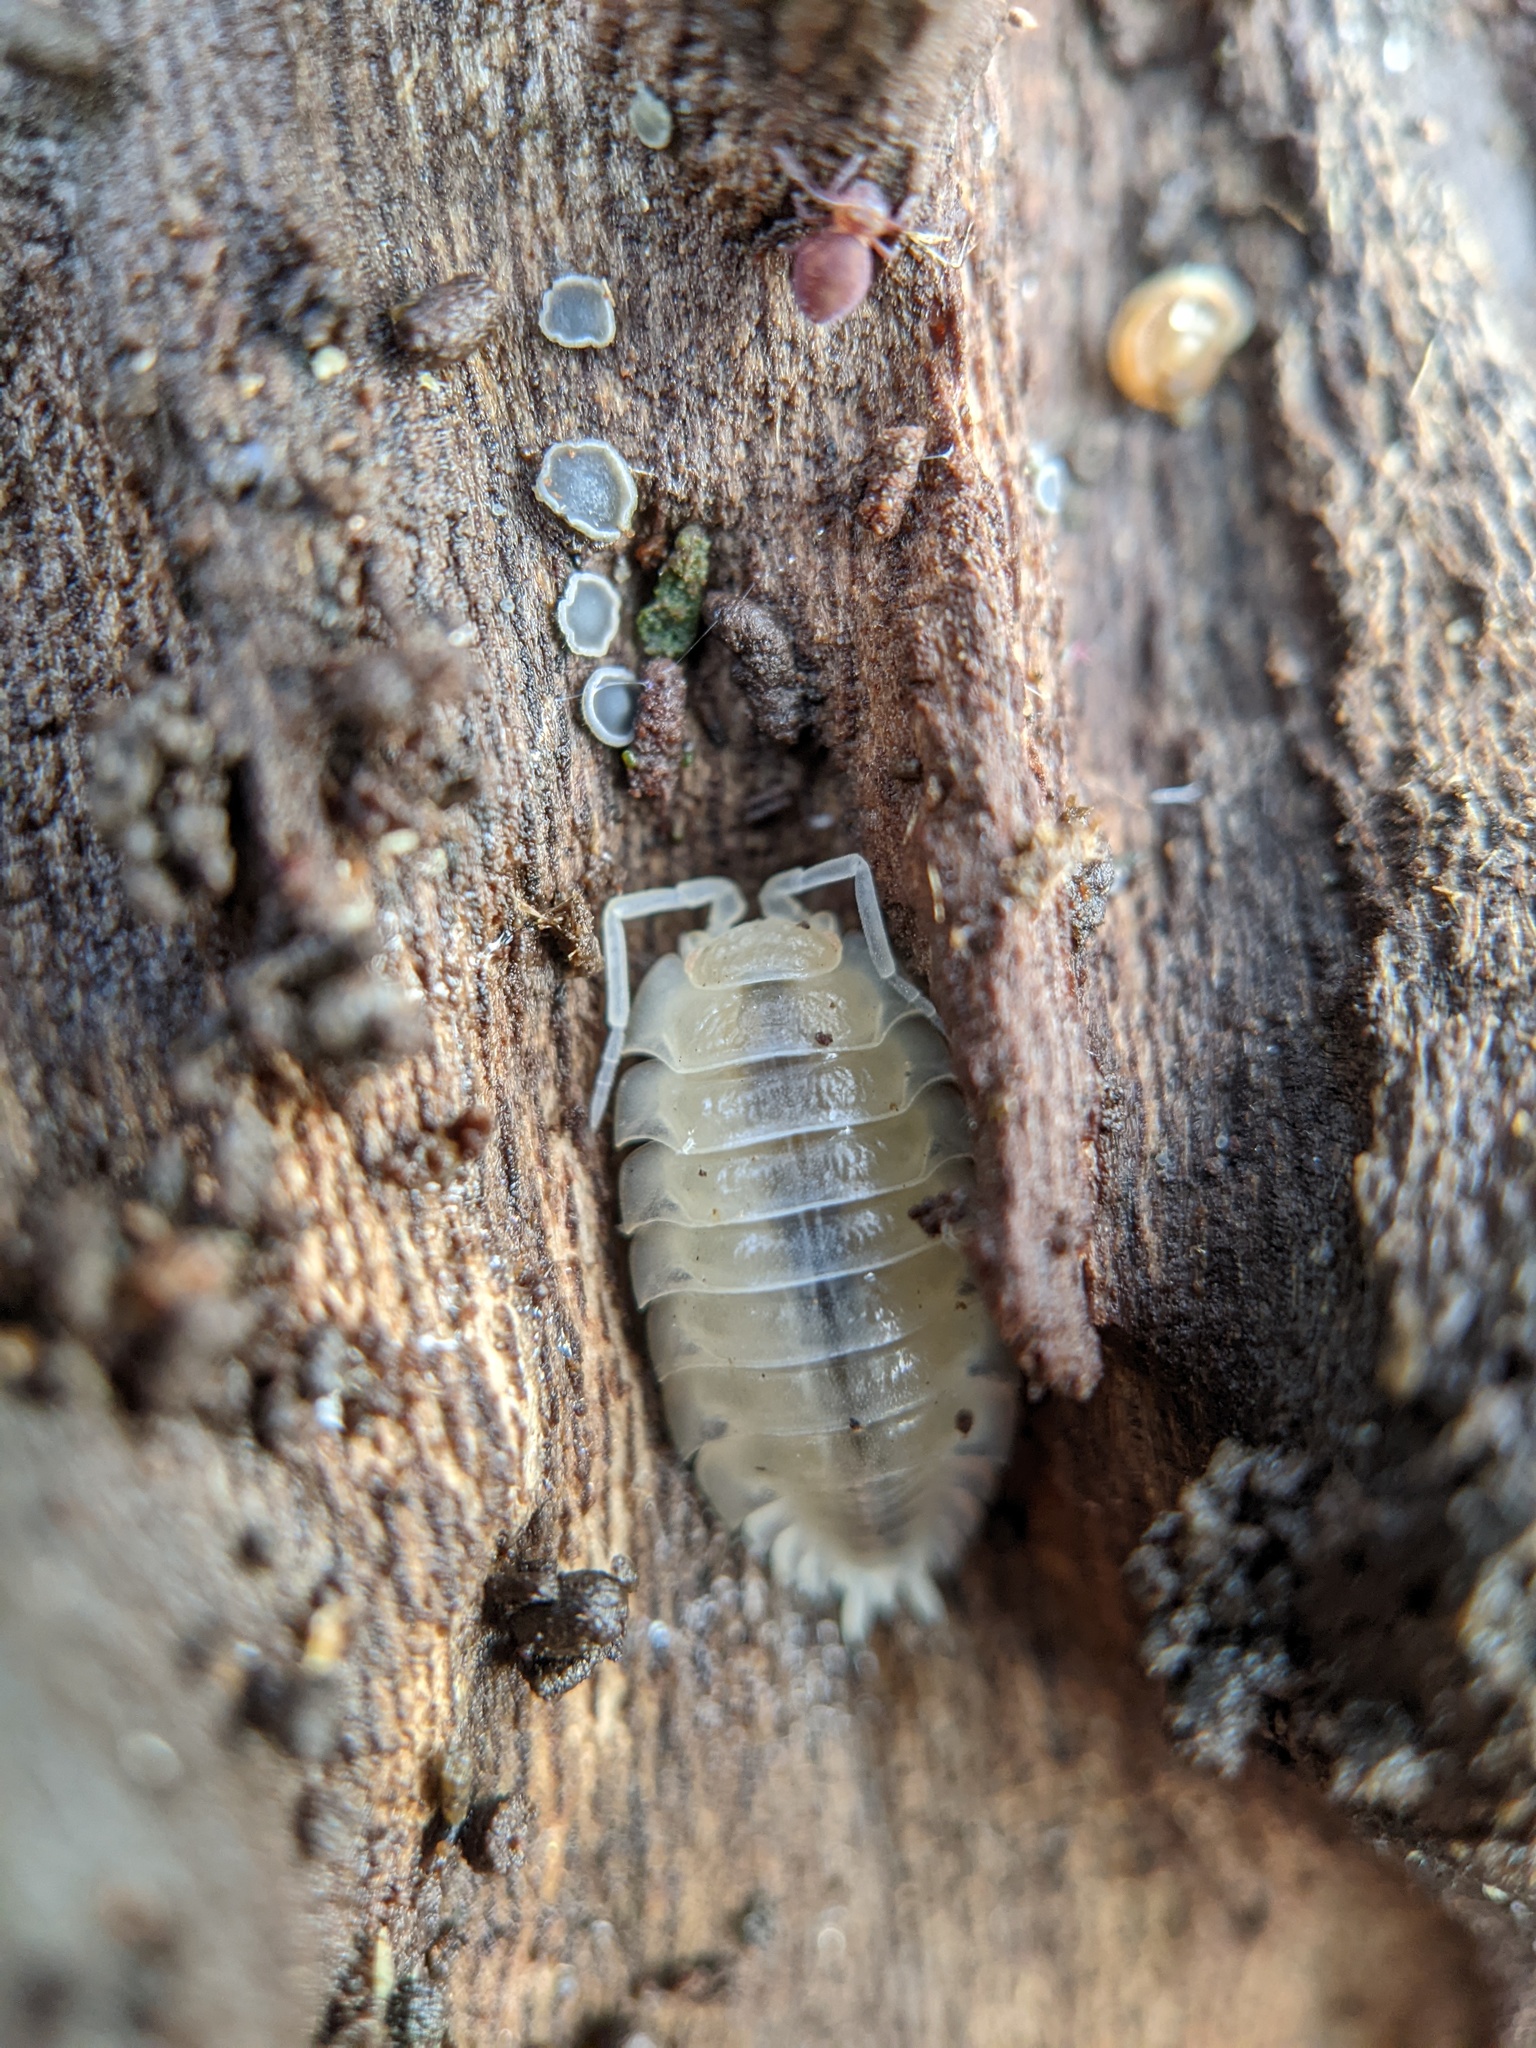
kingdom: Animalia
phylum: Arthropoda
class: Malacostraca
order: Isopoda
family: Oniscidae
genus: Oniscus
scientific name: Oniscus asellus
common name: Common shiny woodlouse
